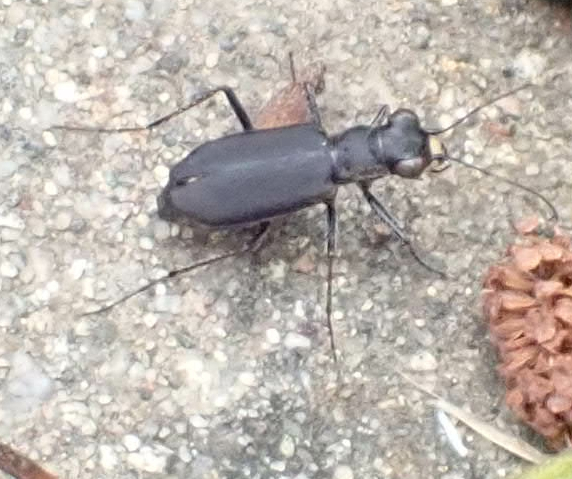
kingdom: Animalia
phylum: Arthropoda
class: Insecta
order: Coleoptera
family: Carabidae
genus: Cylindera
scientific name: Cylindera terricola
